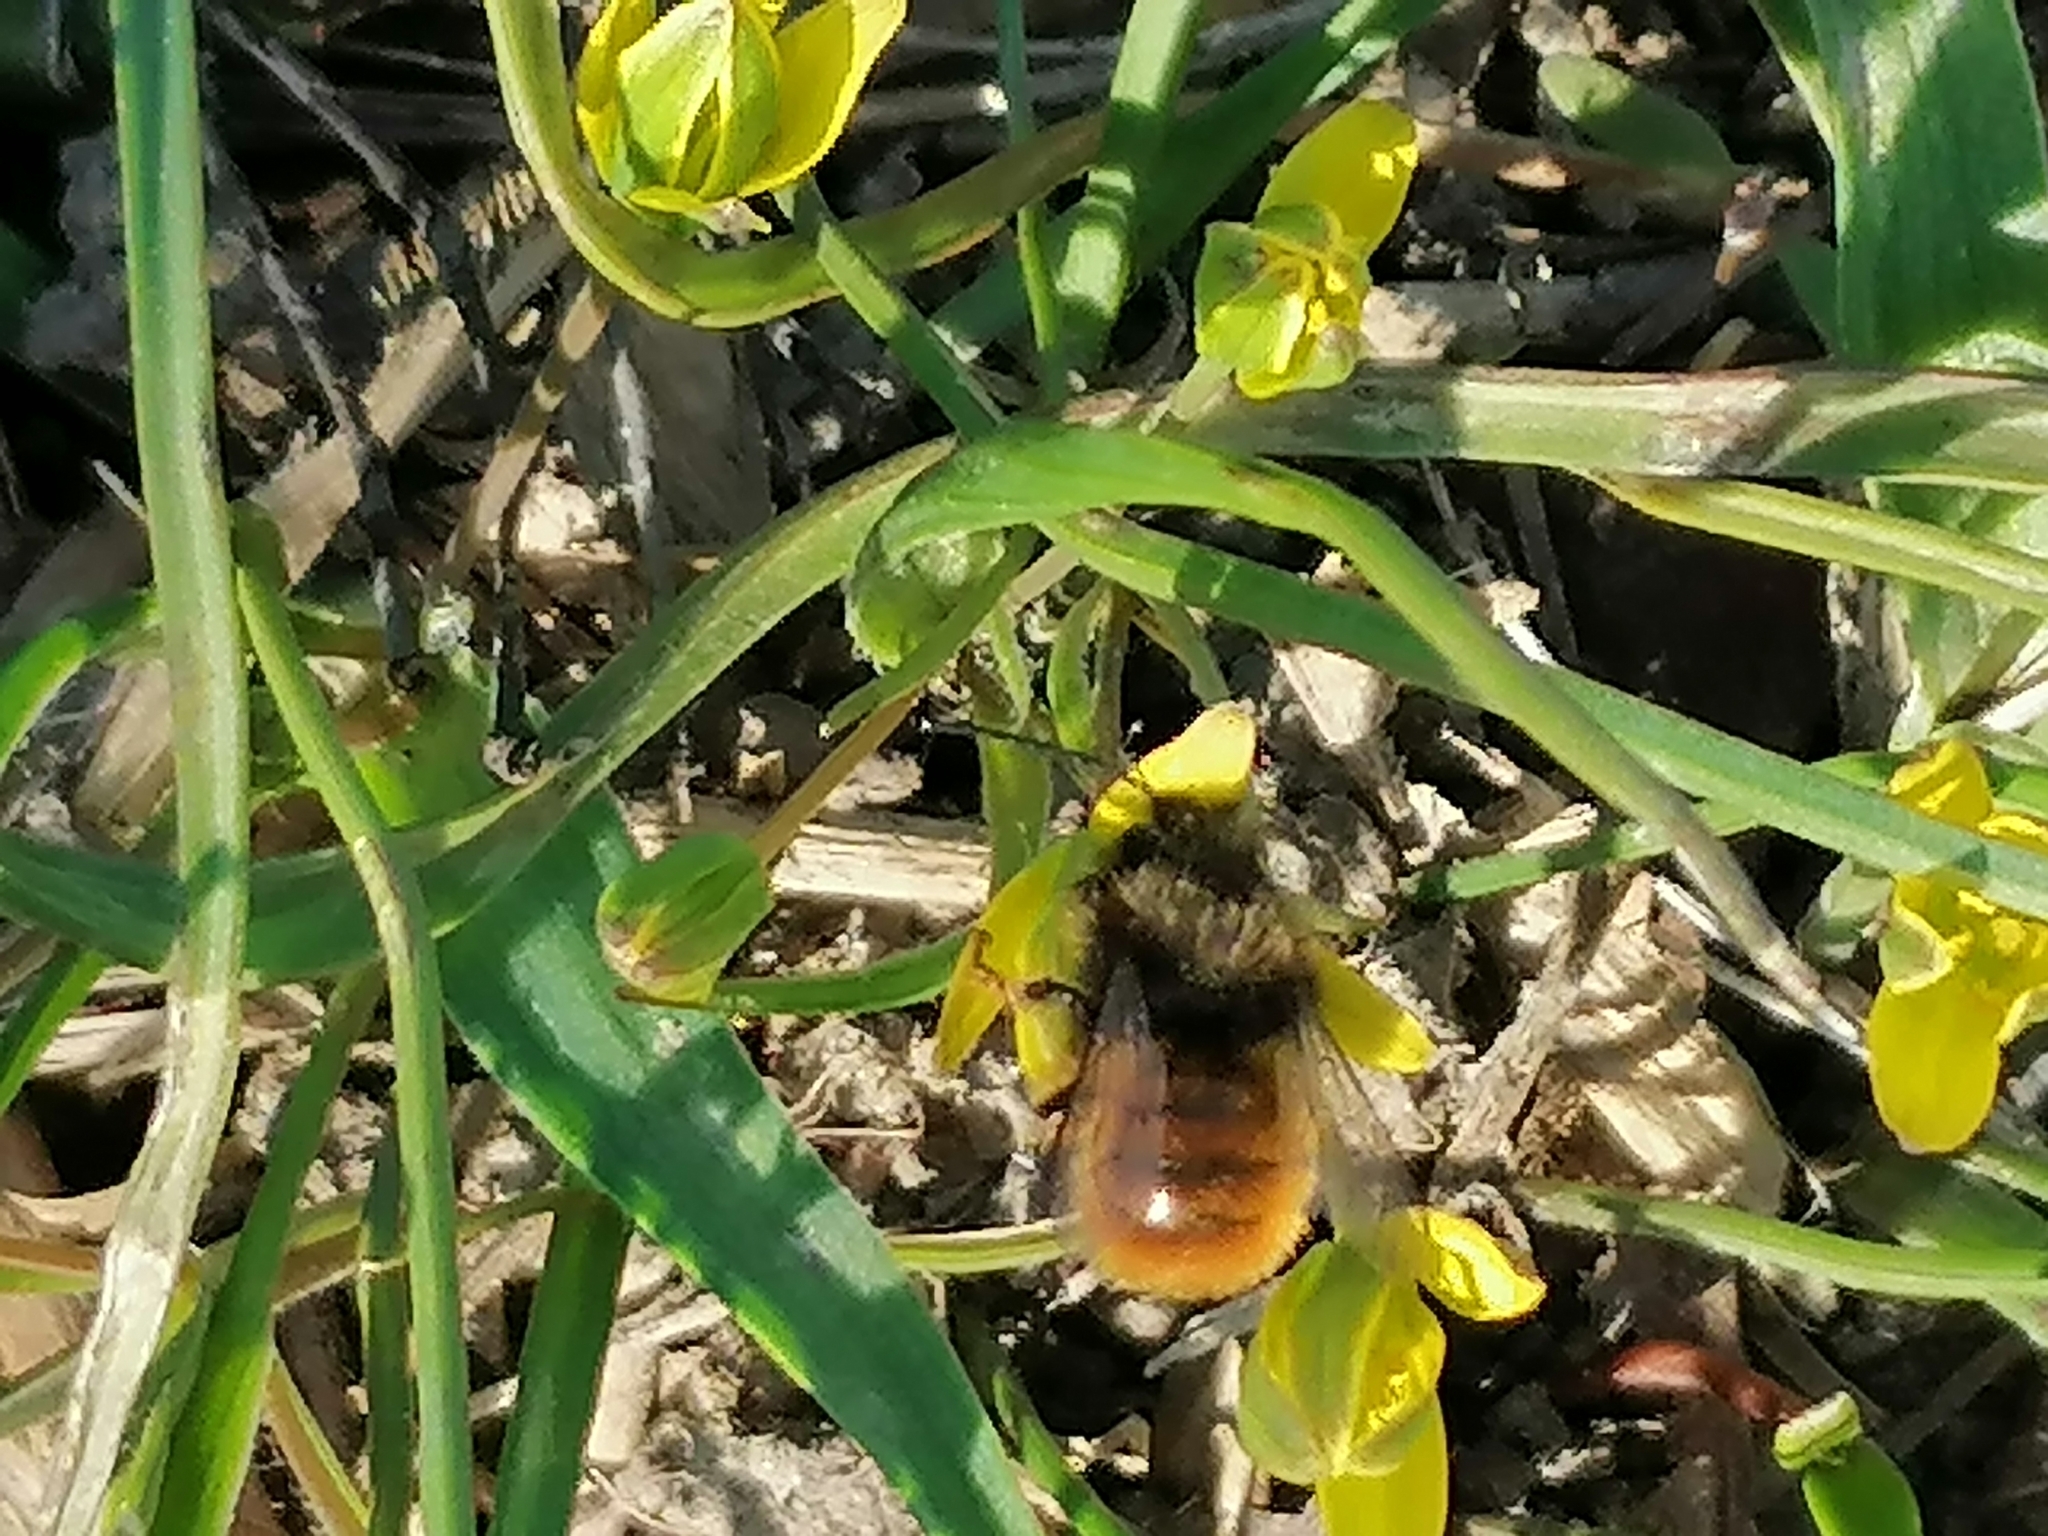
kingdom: Animalia
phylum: Arthropoda
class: Insecta
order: Hymenoptera
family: Megachilidae
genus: Osmia
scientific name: Osmia cornuta
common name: Mason bee
